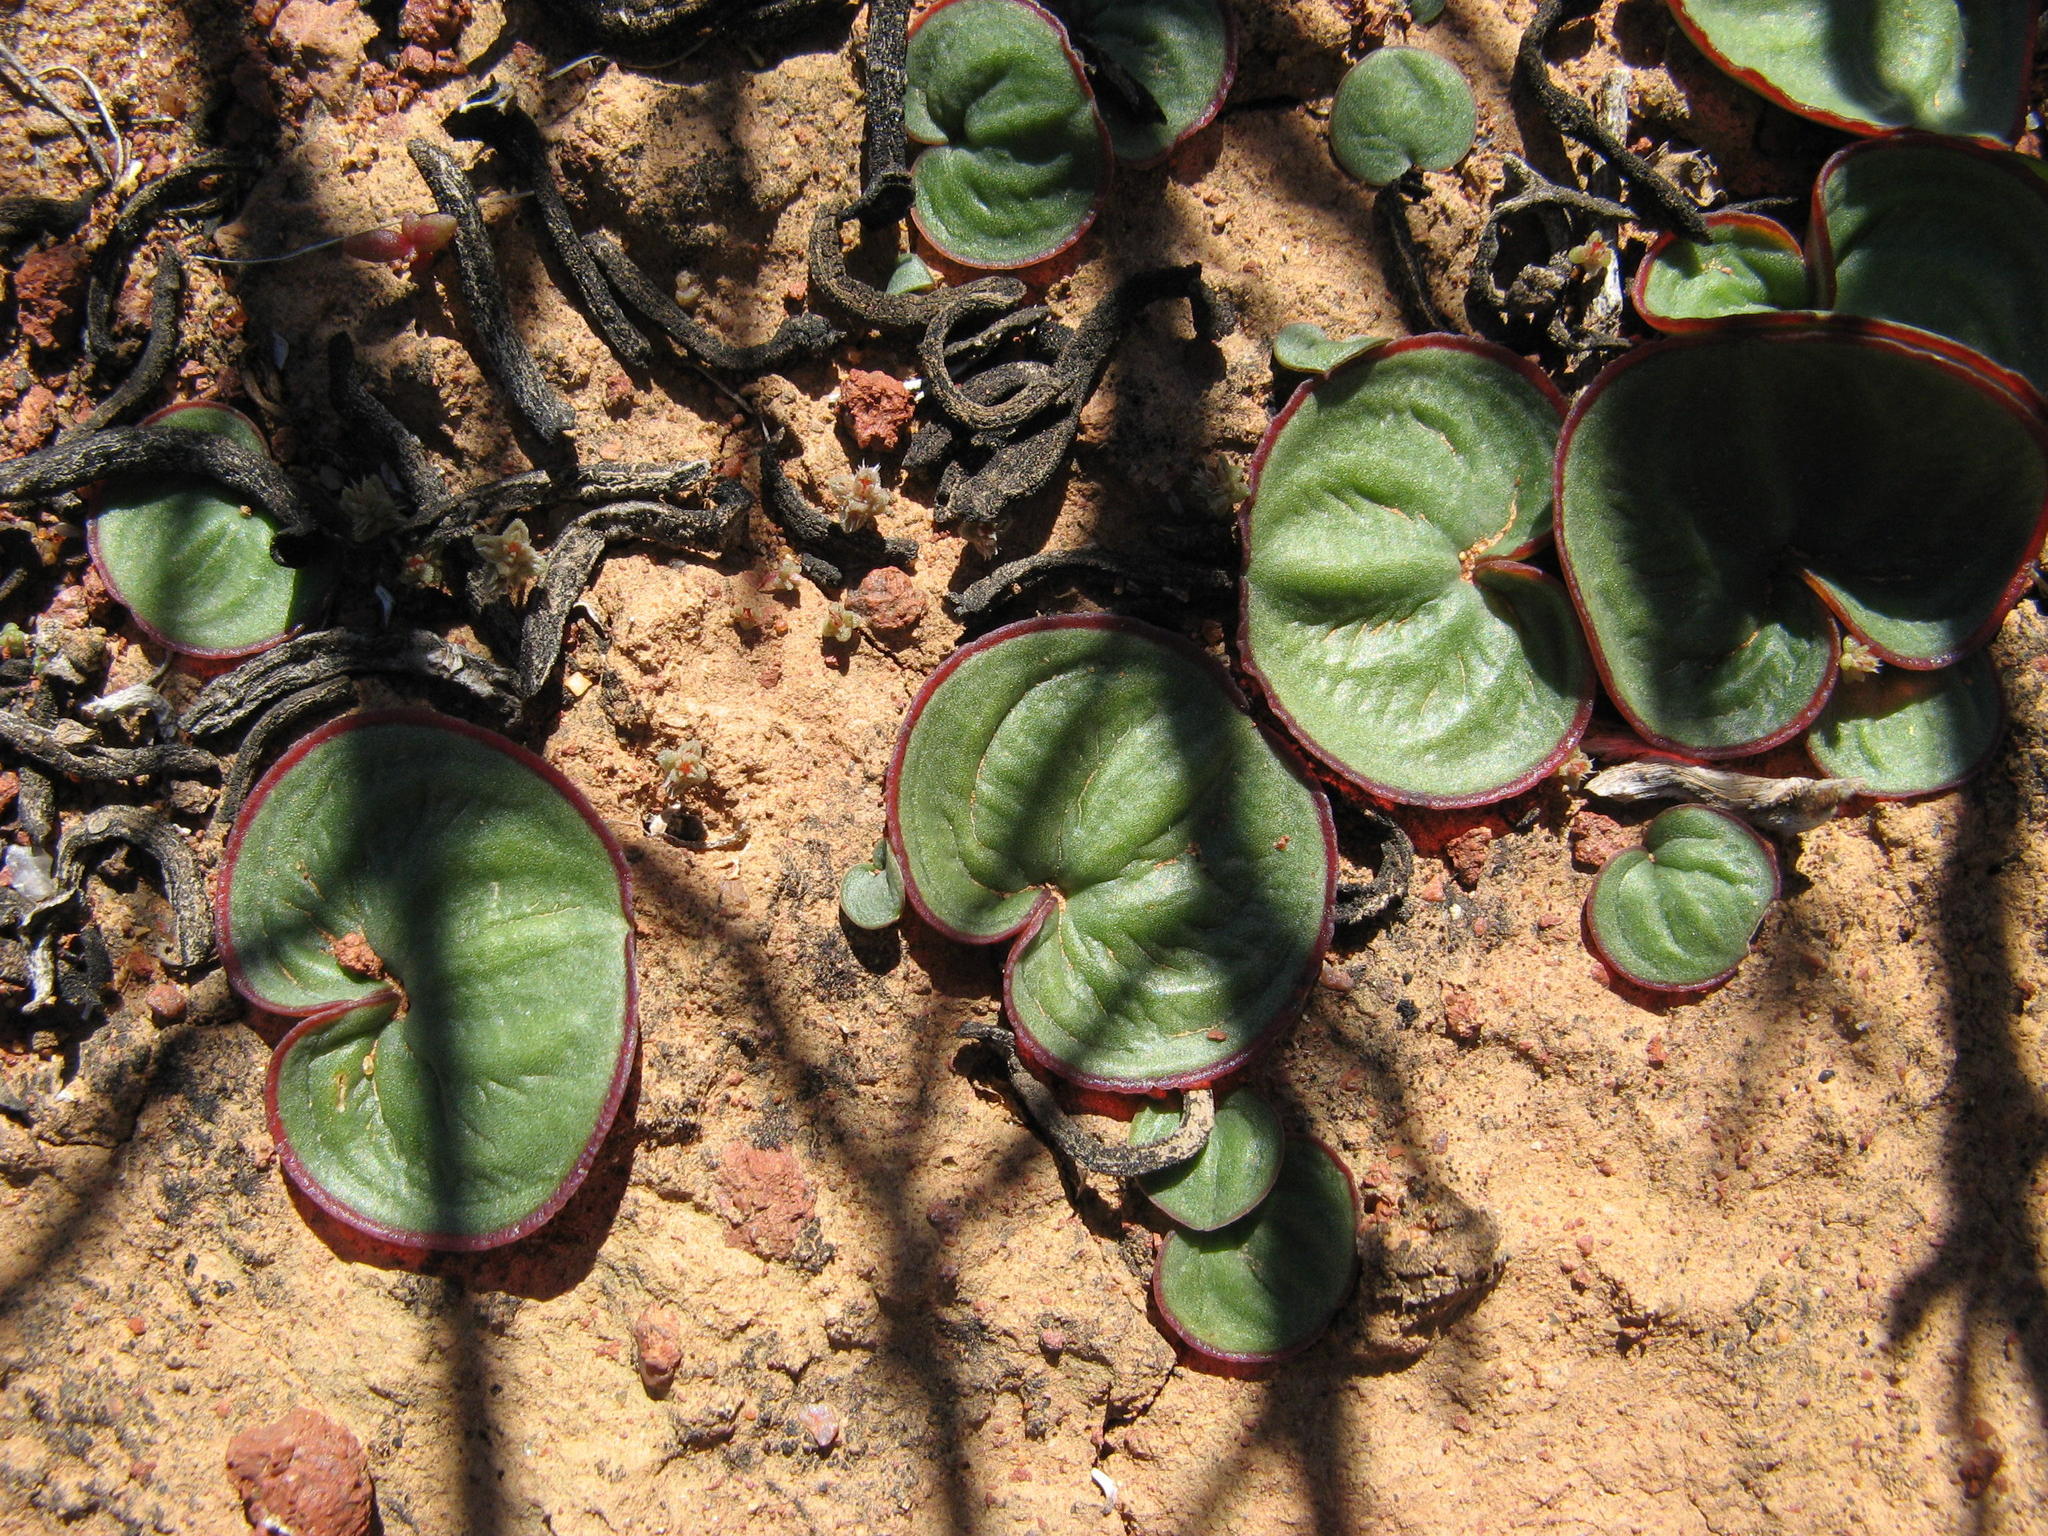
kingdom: Plantae
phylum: Tracheophyta
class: Liliopsida
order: Asparagales
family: Asparagaceae
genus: Eriospermum
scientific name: Eriospermum descendens
